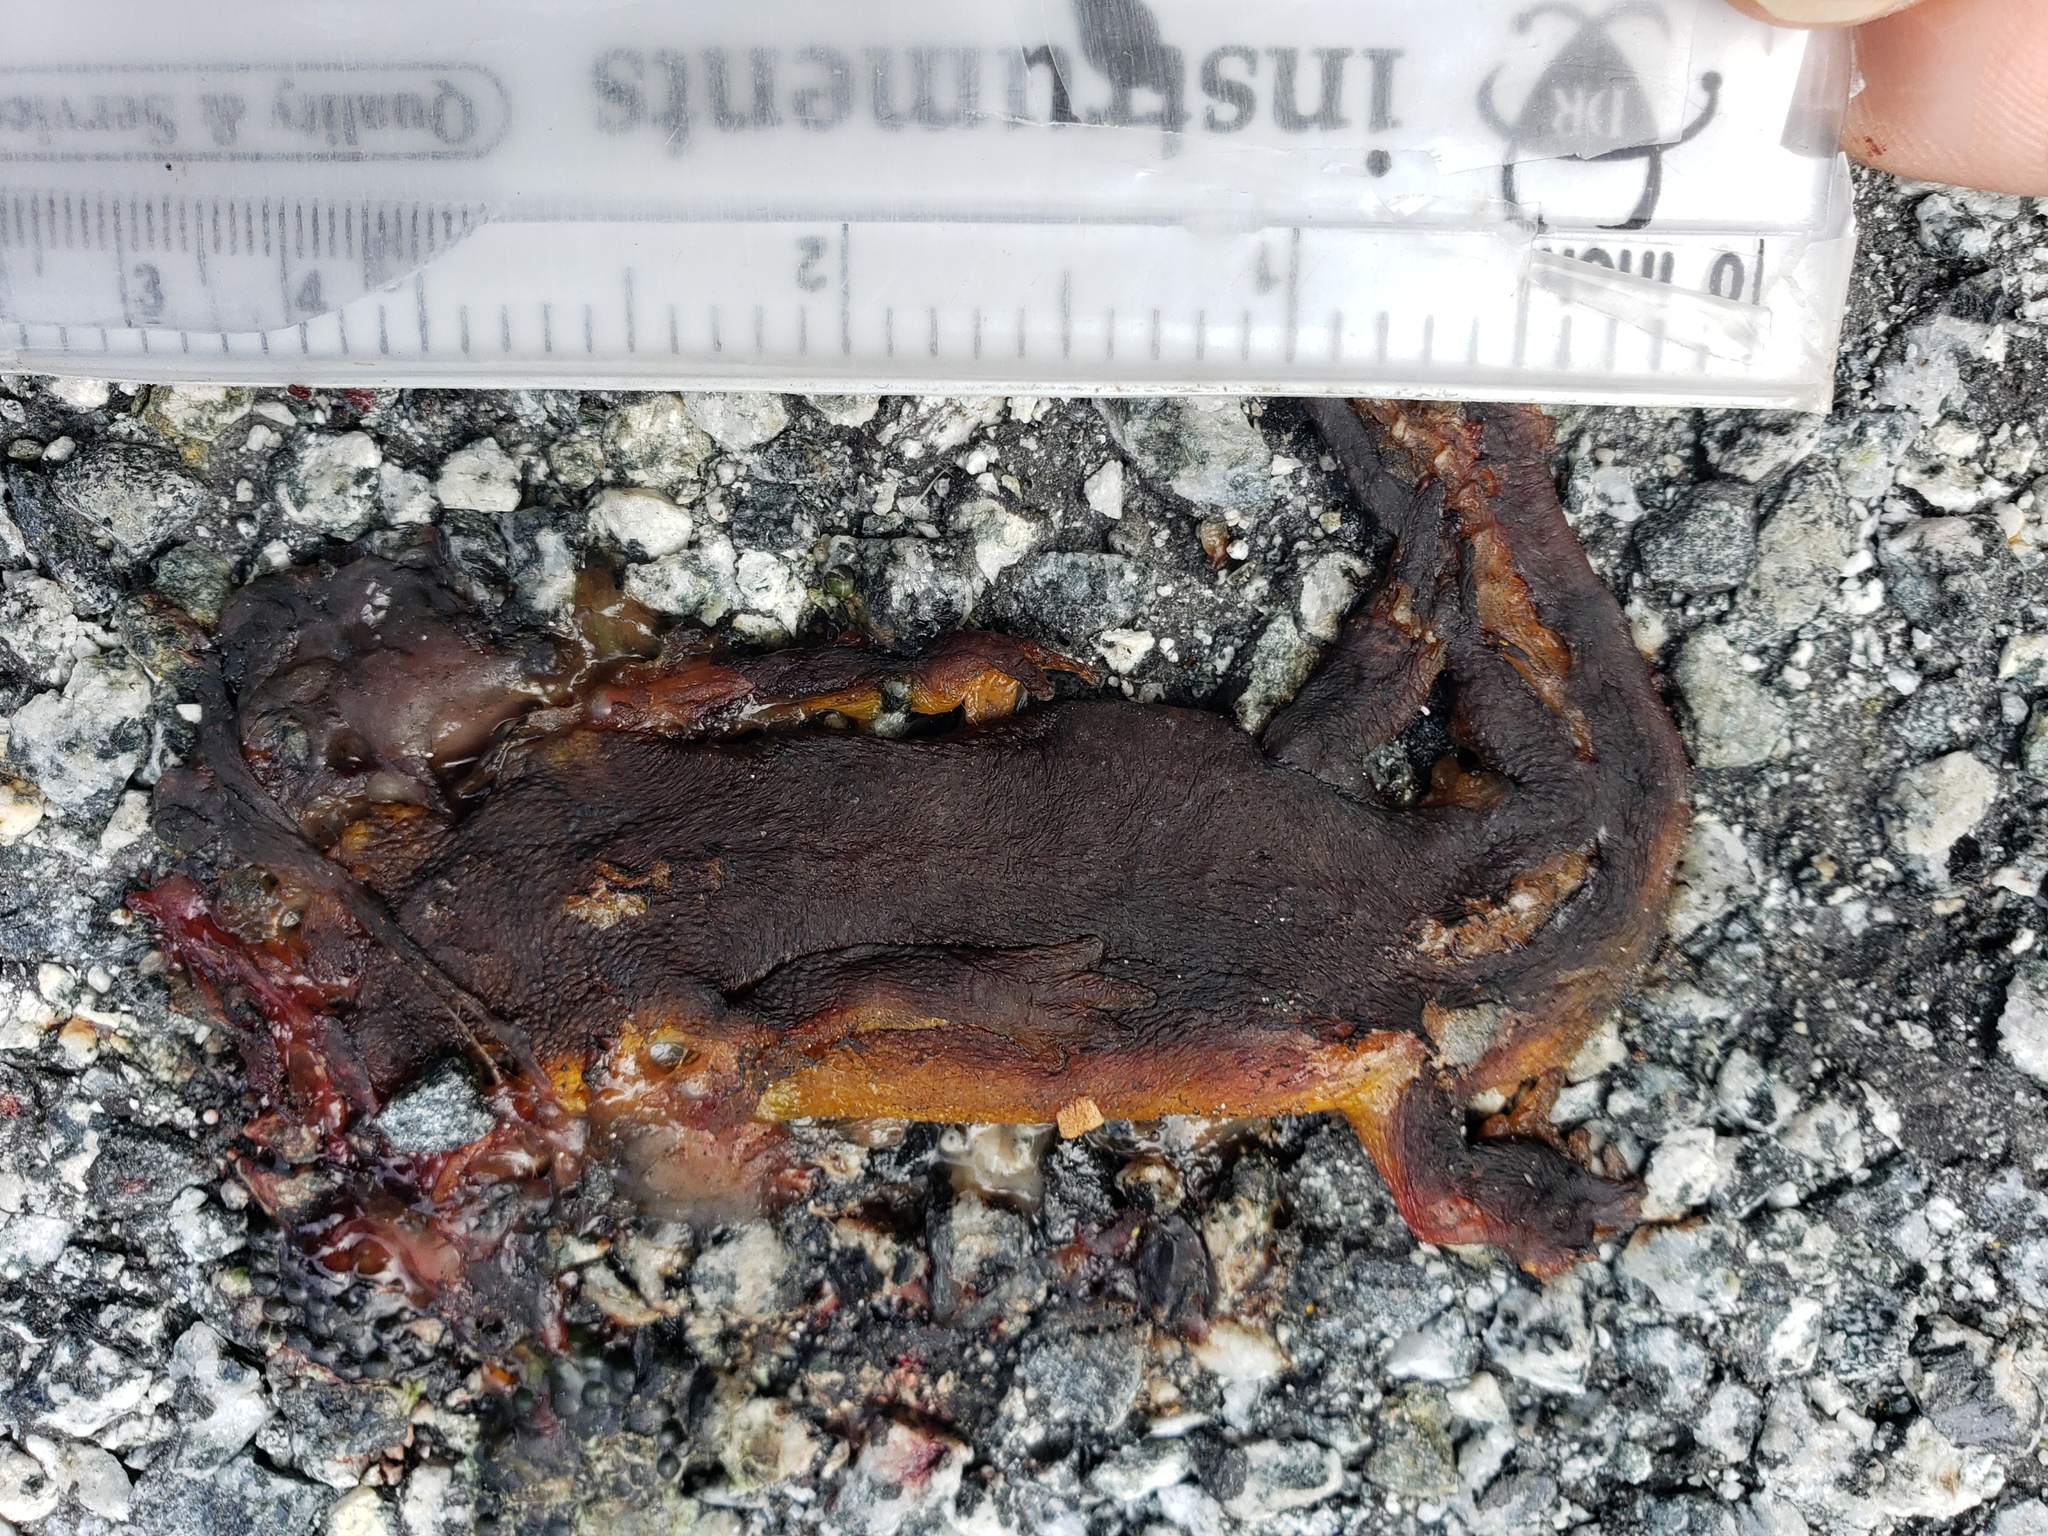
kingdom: Animalia
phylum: Chordata
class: Amphibia
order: Caudata
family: Salamandridae
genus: Taricha
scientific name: Taricha
